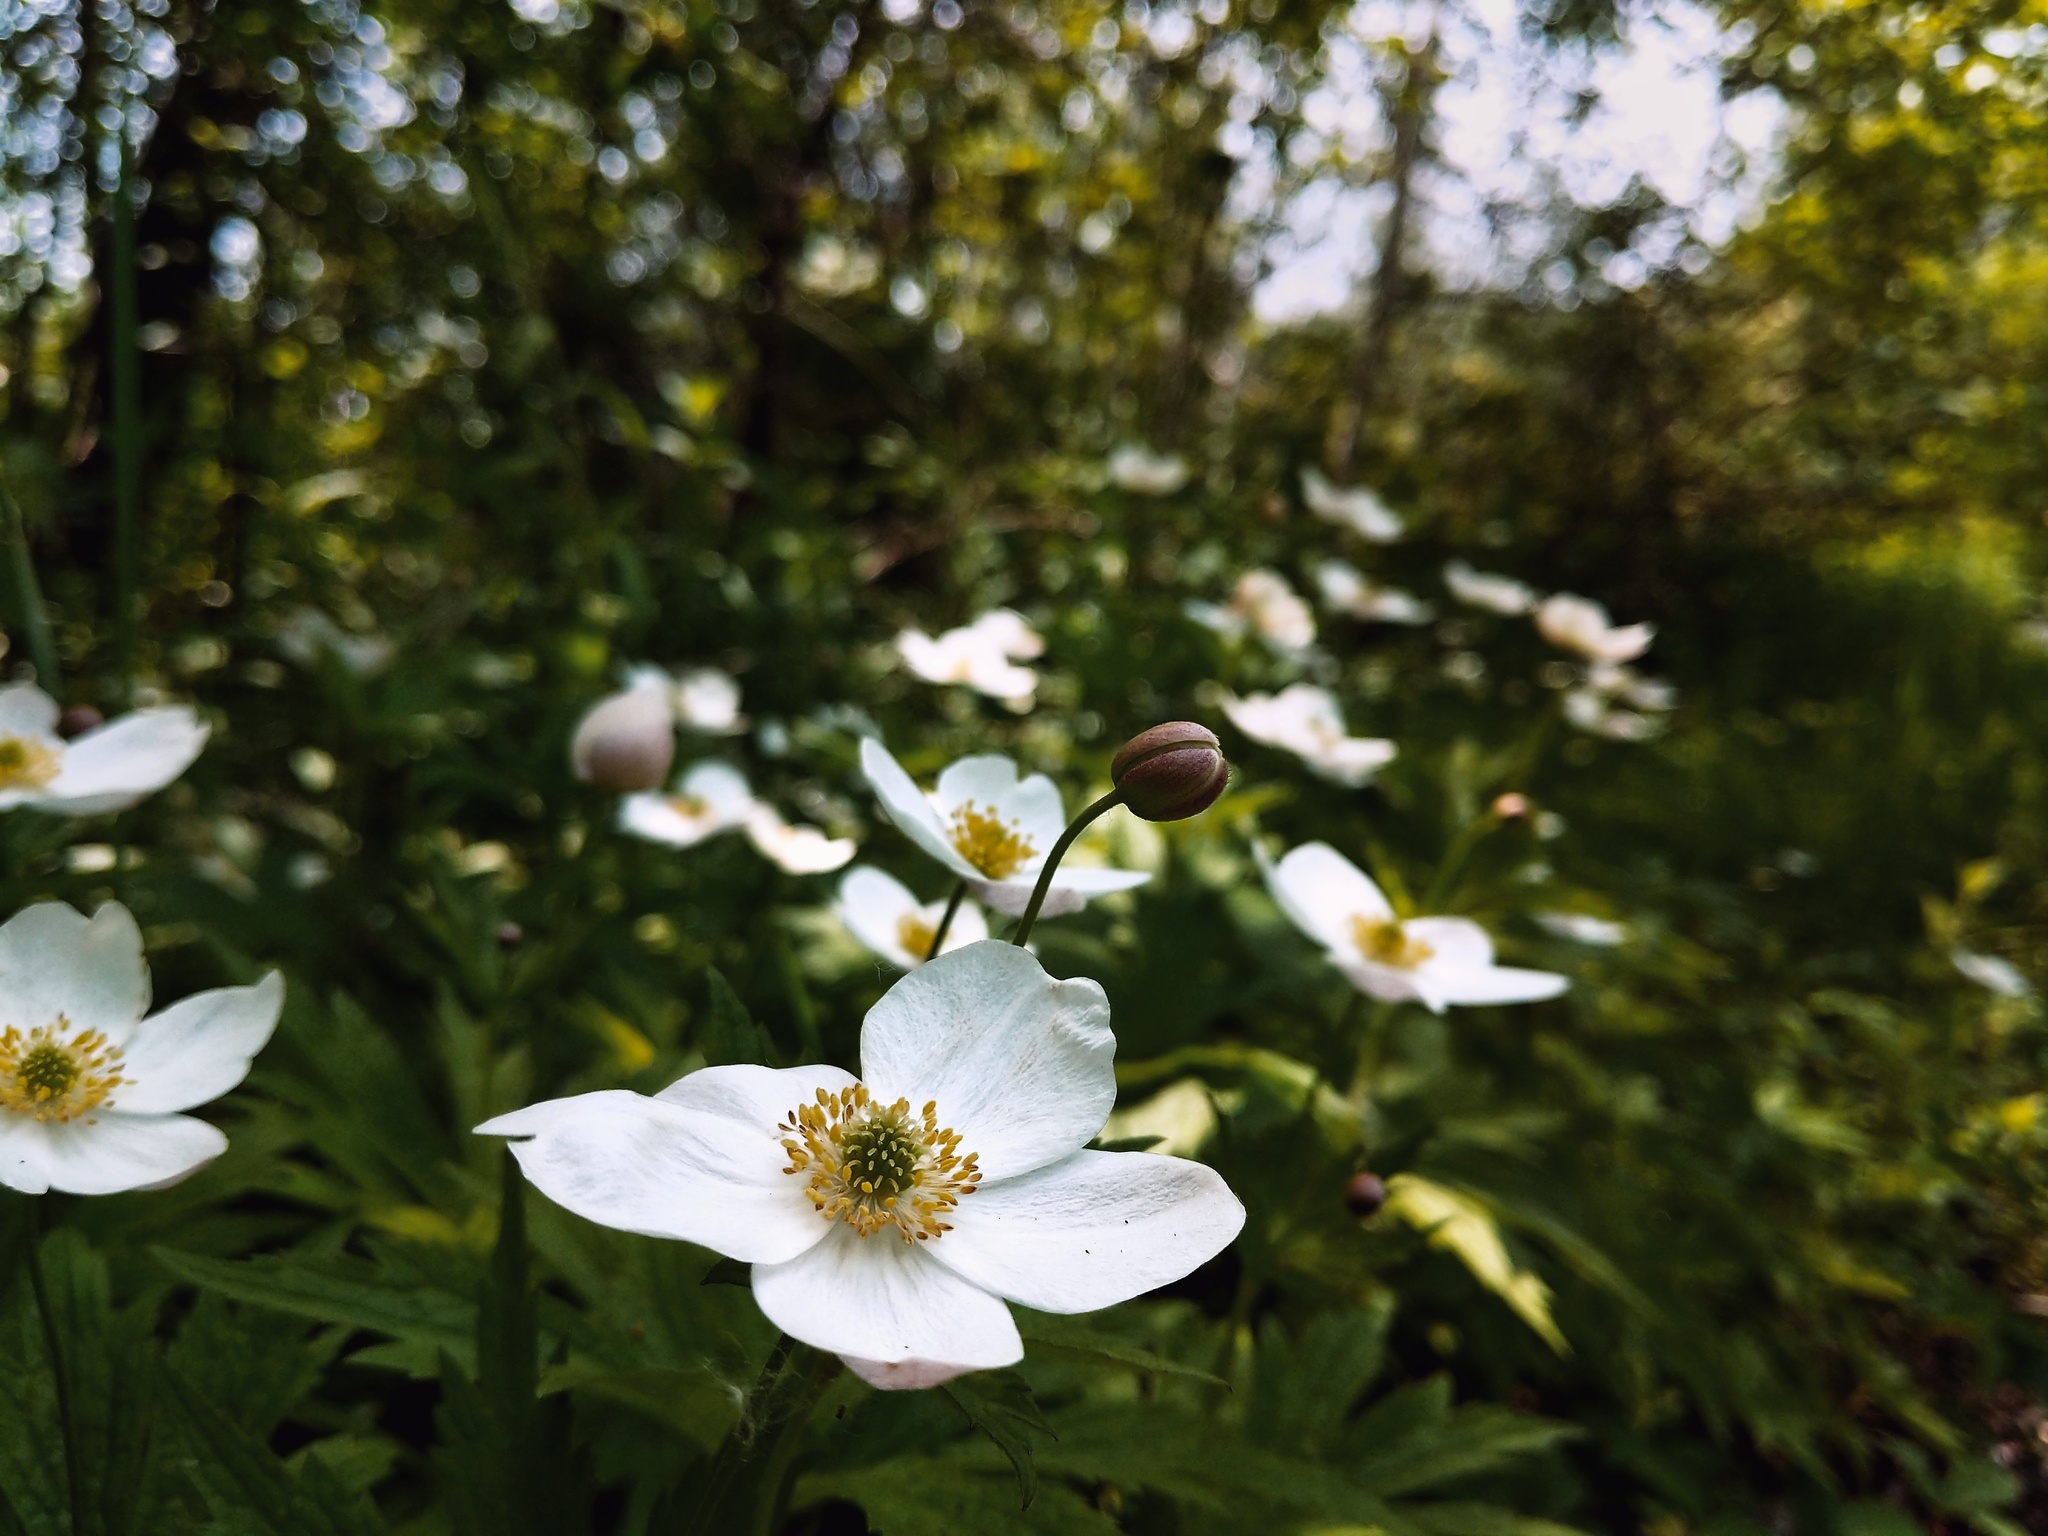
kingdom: Plantae
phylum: Tracheophyta
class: Magnoliopsida
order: Ranunculales
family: Ranunculaceae
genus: Anemonastrum
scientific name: Anemonastrum canadense
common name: Canada anemone
